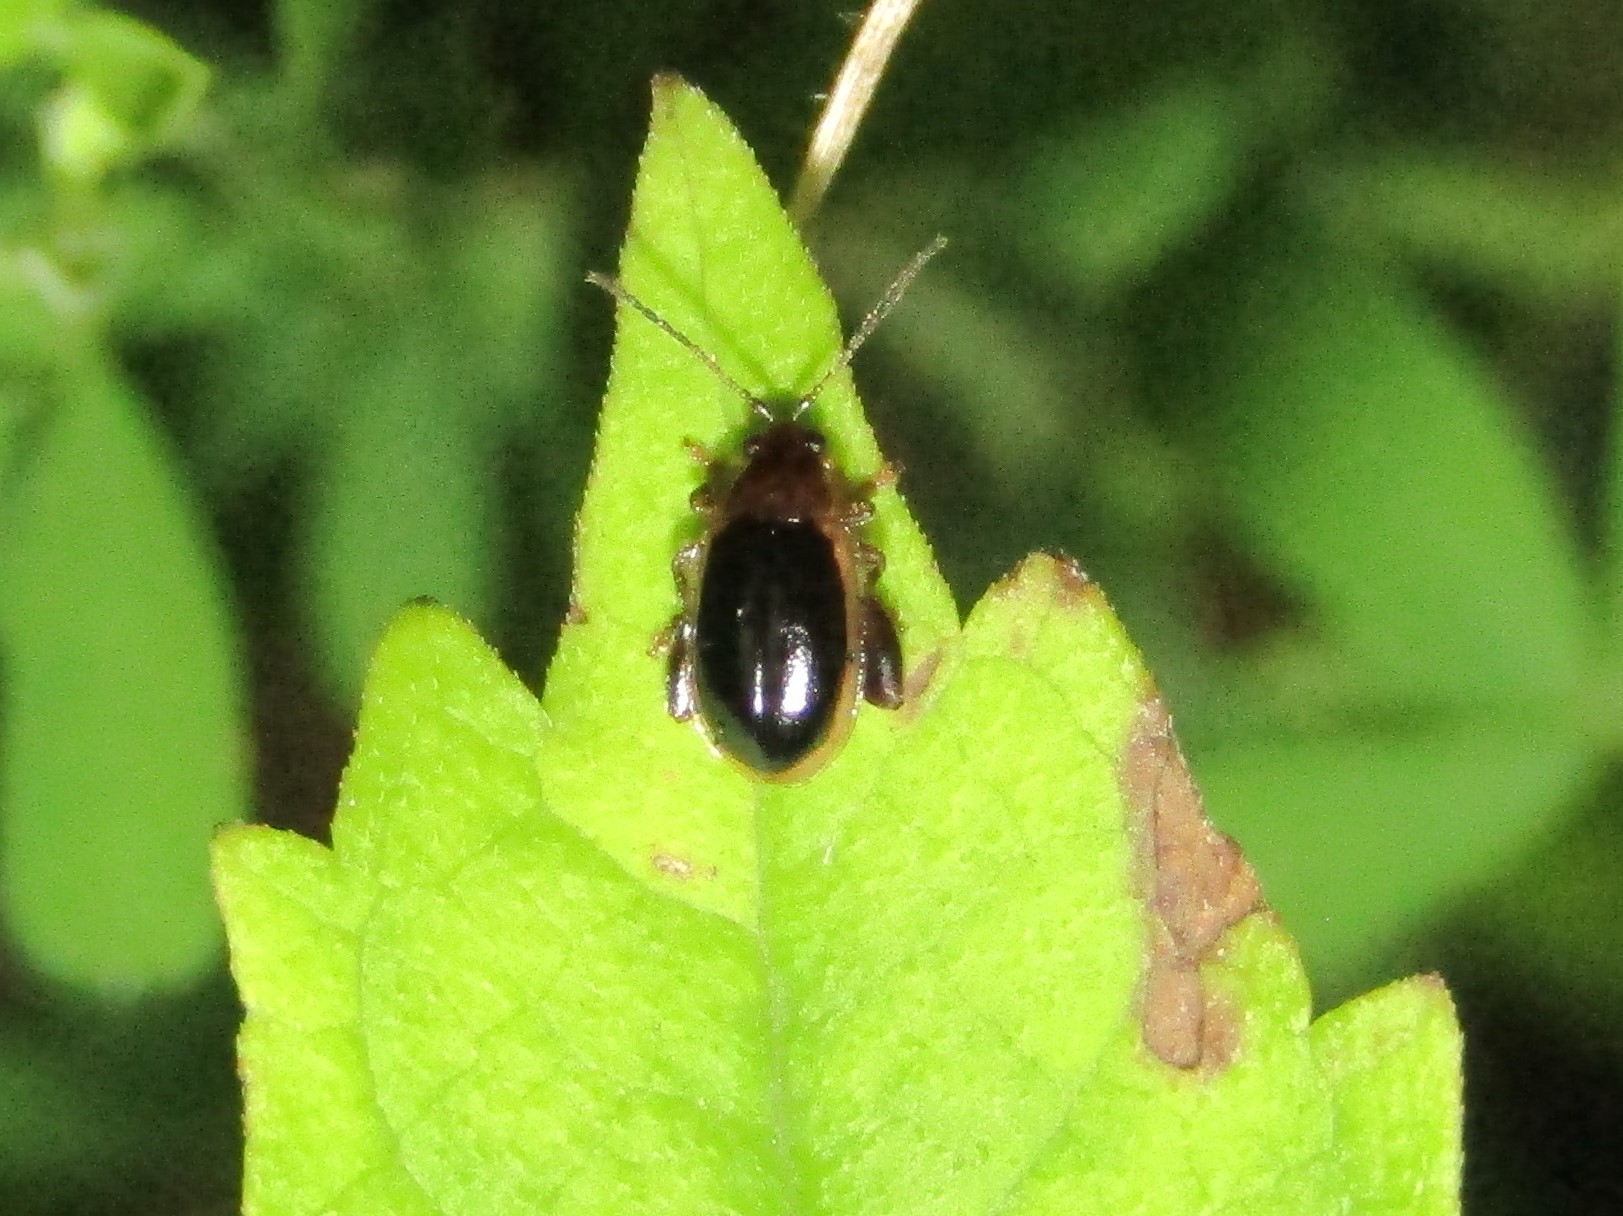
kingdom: Animalia
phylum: Arthropoda
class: Insecta
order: Coleoptera
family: Chrysomelidae
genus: Capraita
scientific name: Capraita circumdata
